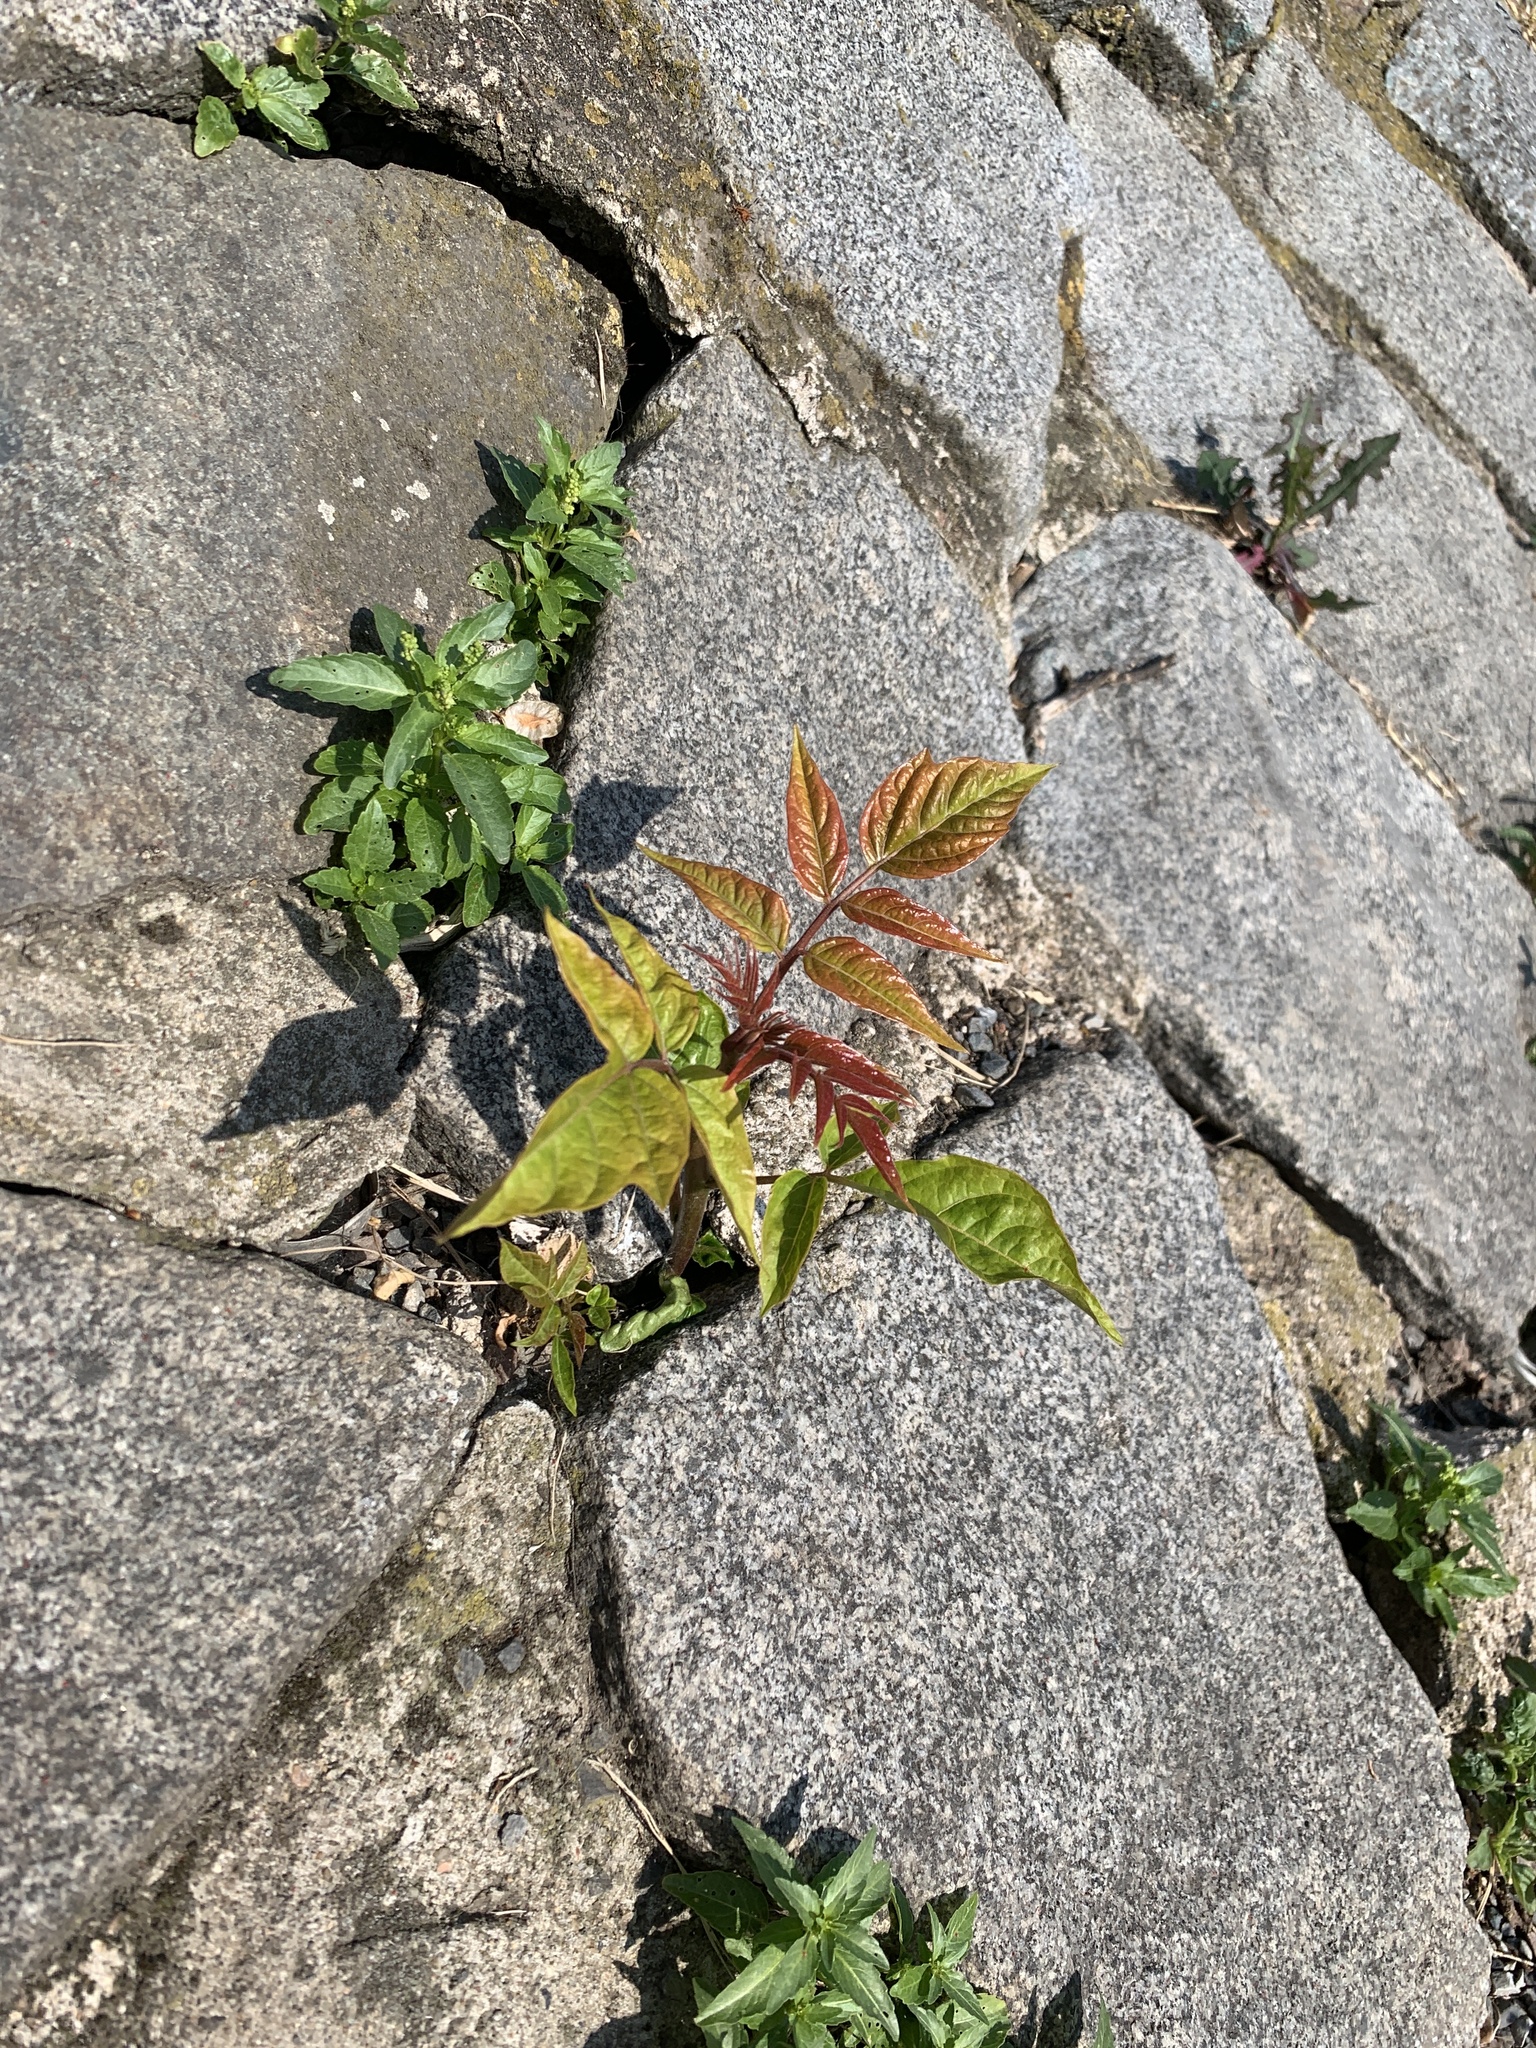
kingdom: Plantae
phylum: Tracheophyta
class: Magnoliopsida
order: Sapindales
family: Simaroubaceae
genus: Ailanthus
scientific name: Ailanthus altissima
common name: Tree-of-heaven
